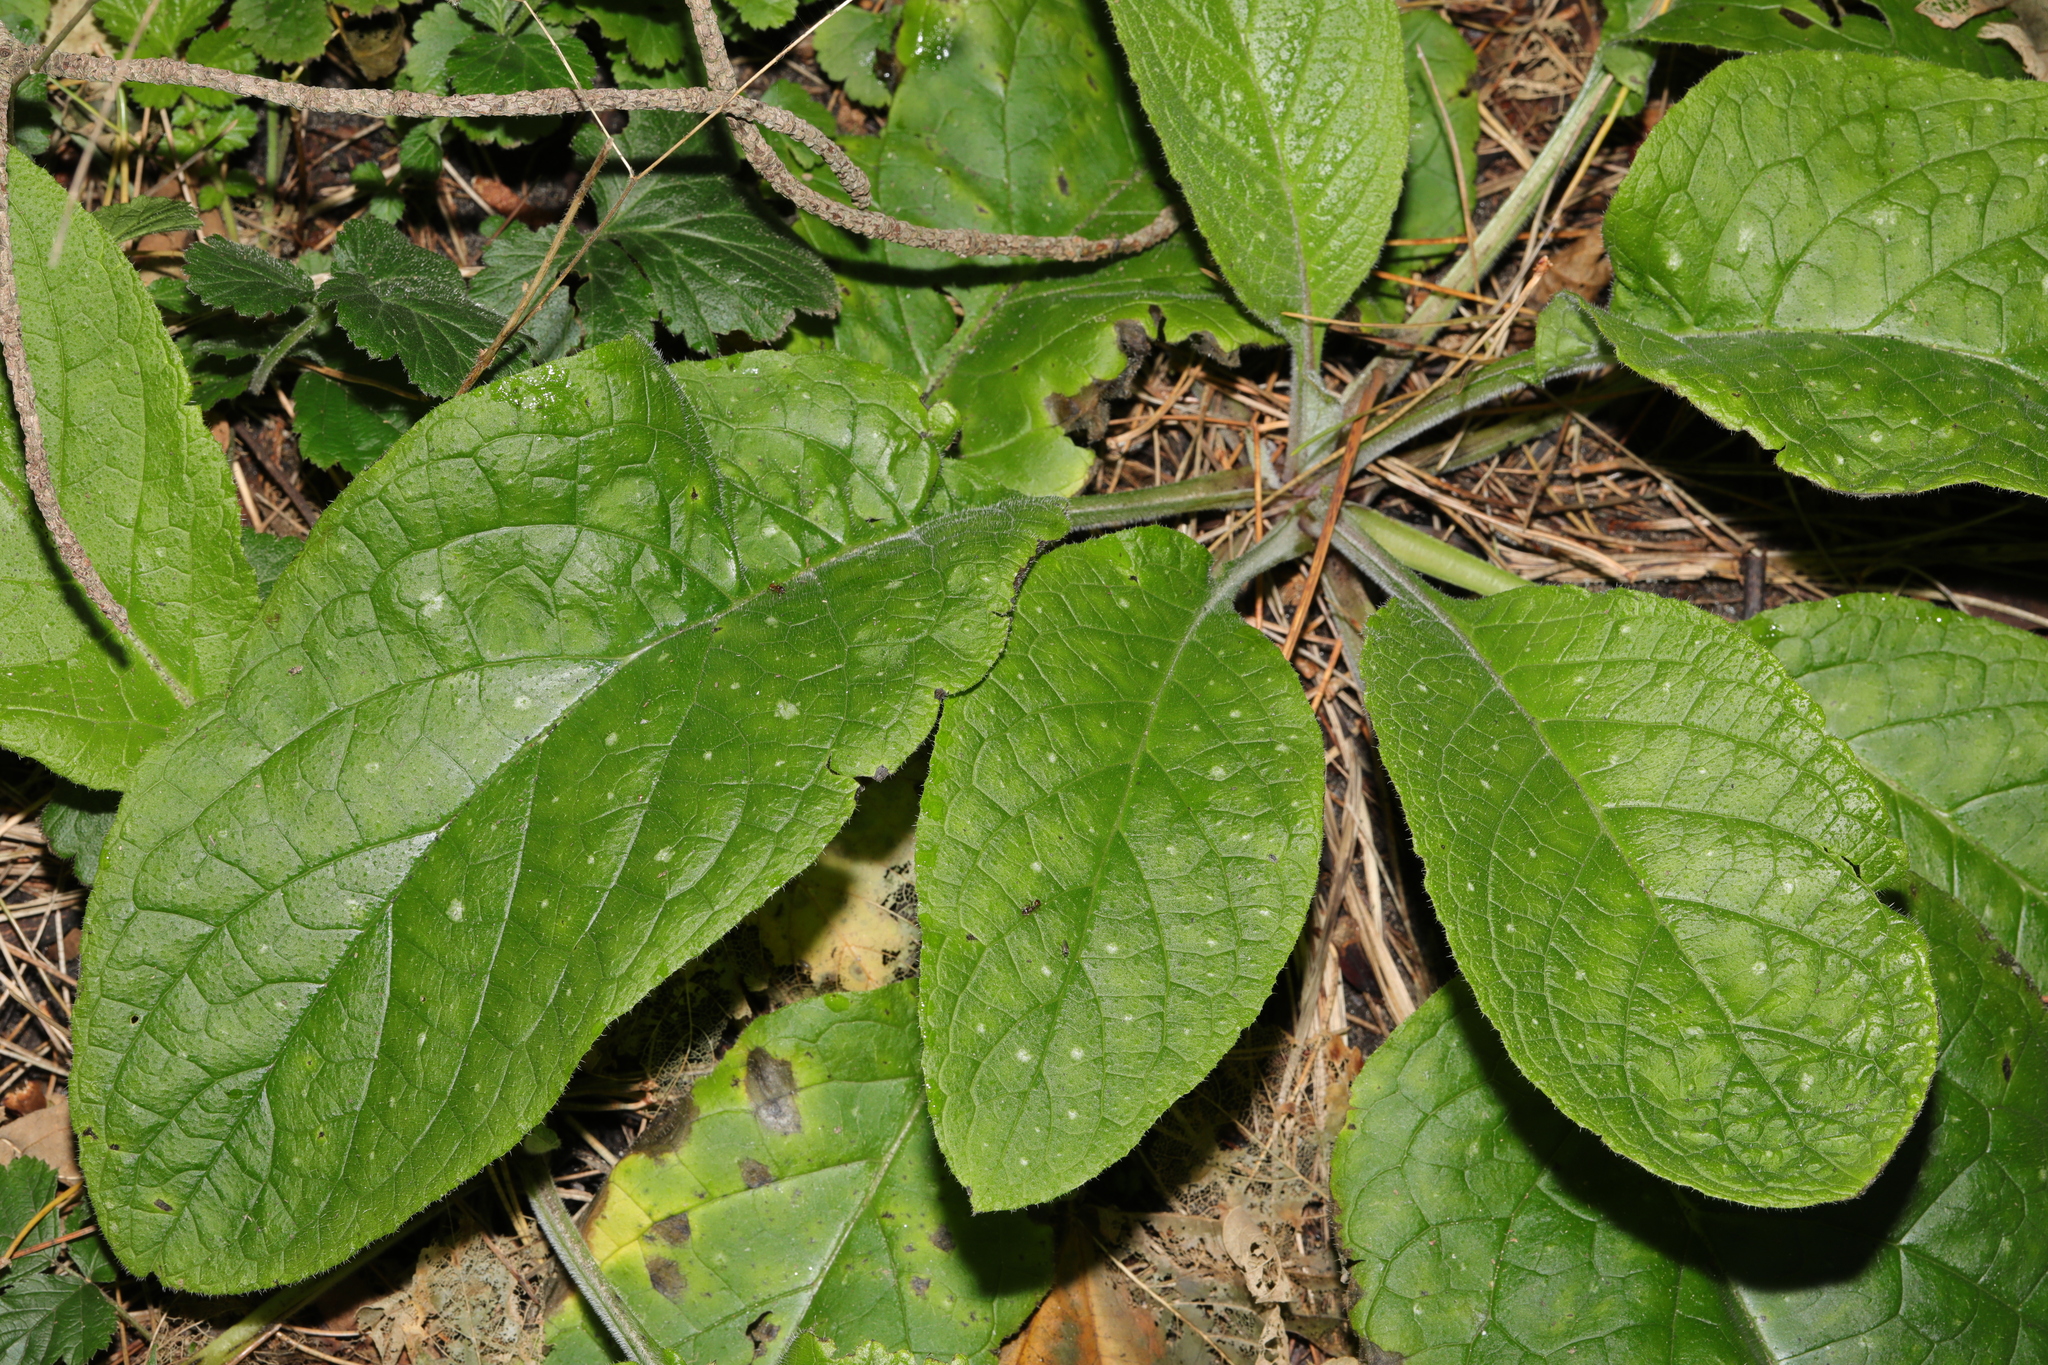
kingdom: Plantae
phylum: Tracheophyta
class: Magnoliopsida
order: Boraginales
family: Boraginaceae
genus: Pentaglottis
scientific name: Pentaglottis sempervirens
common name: Green alkanet
